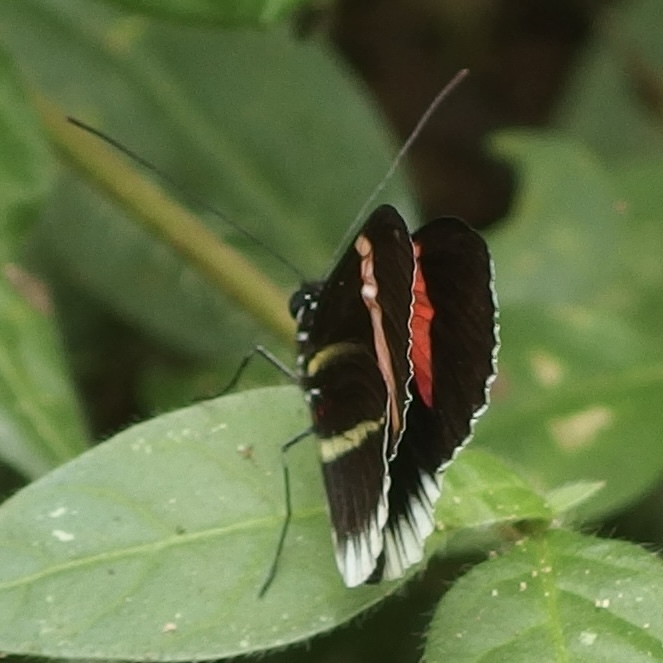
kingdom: Animalia
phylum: Arthropoda
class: Insecta
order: Lepidoptera
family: Nymphalidae
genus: Heliconius
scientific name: Heliconius erato
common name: Common patch longwing
